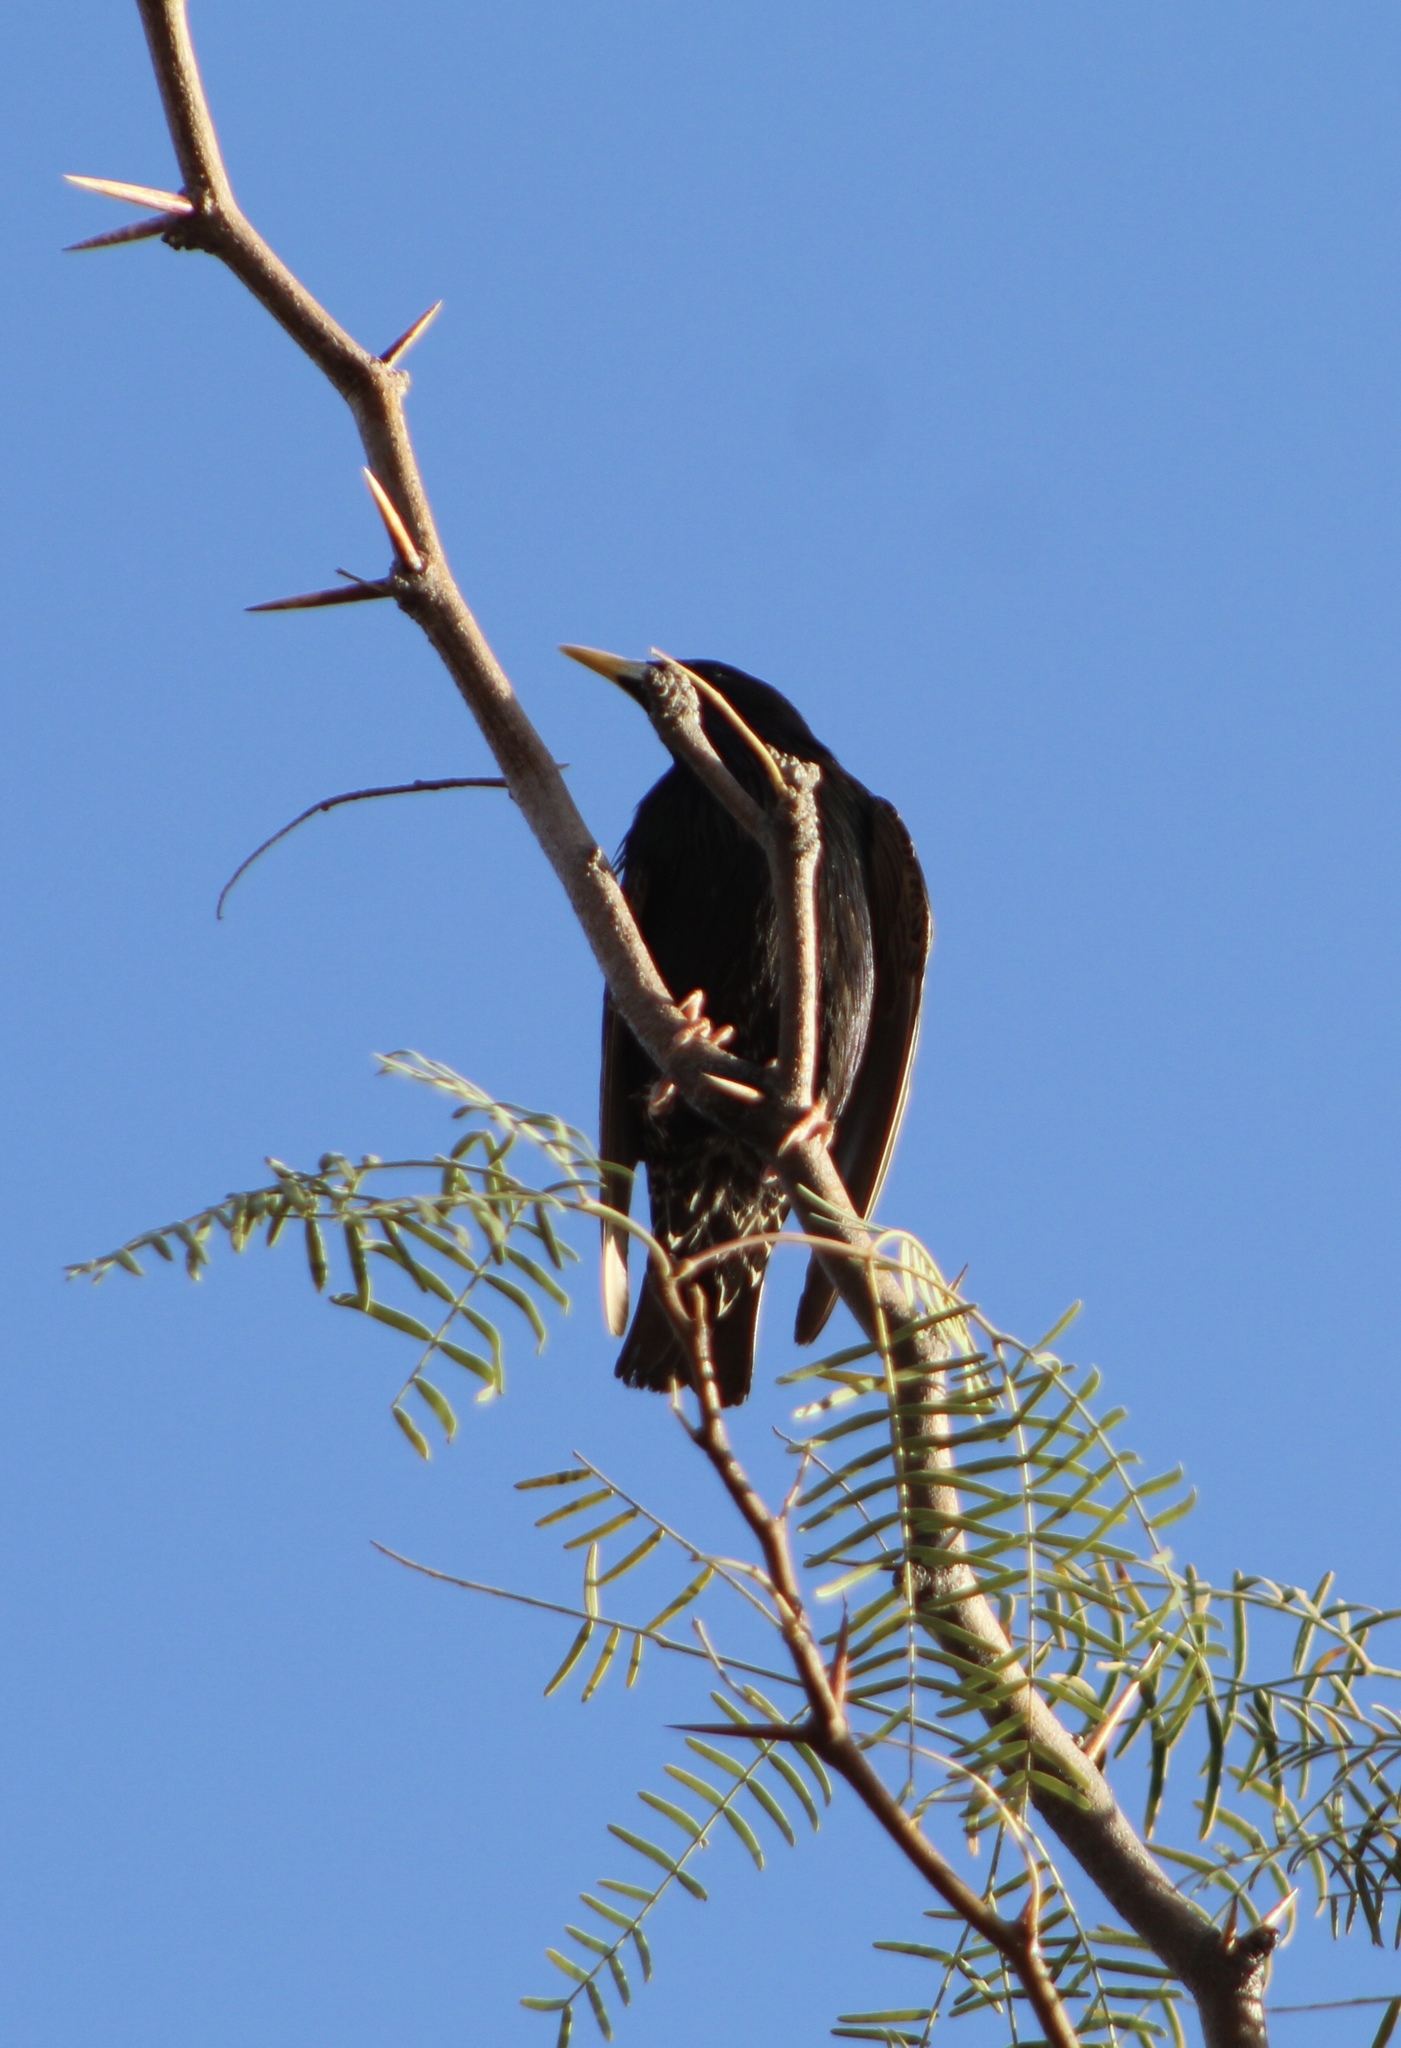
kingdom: Animalia
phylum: Chordata
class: Aves
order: Passeriformes
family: Sturnidae
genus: Sturnus
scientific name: Sturnus vulgaris
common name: Common starling
